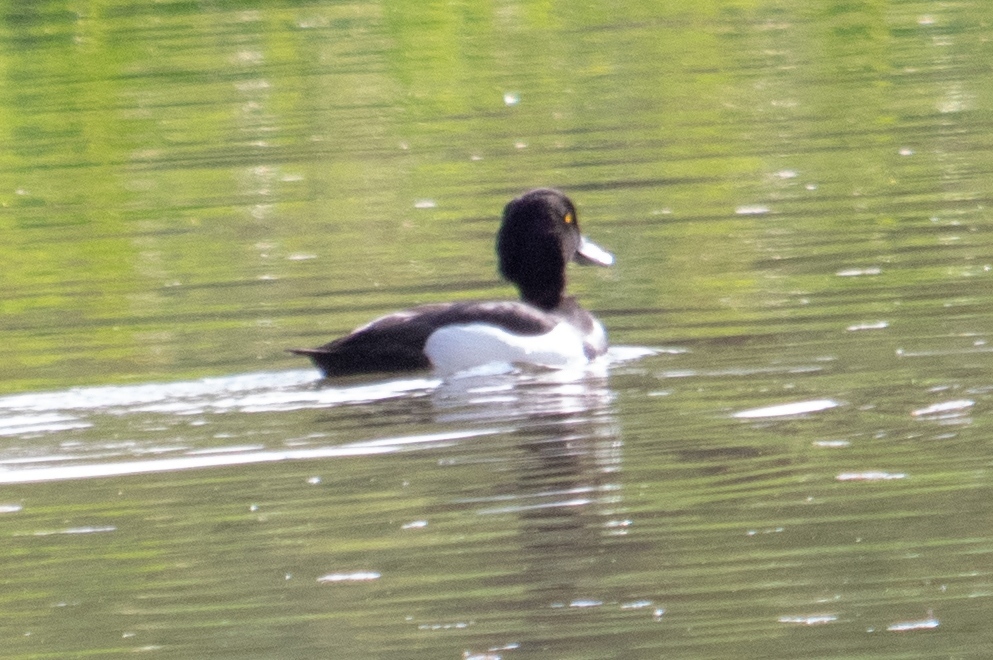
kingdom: Animalia
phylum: Chordata
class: Aves
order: Anseriformes
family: Anatidae
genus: Aythya
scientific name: Aythya fuligula
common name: Tufted duck
